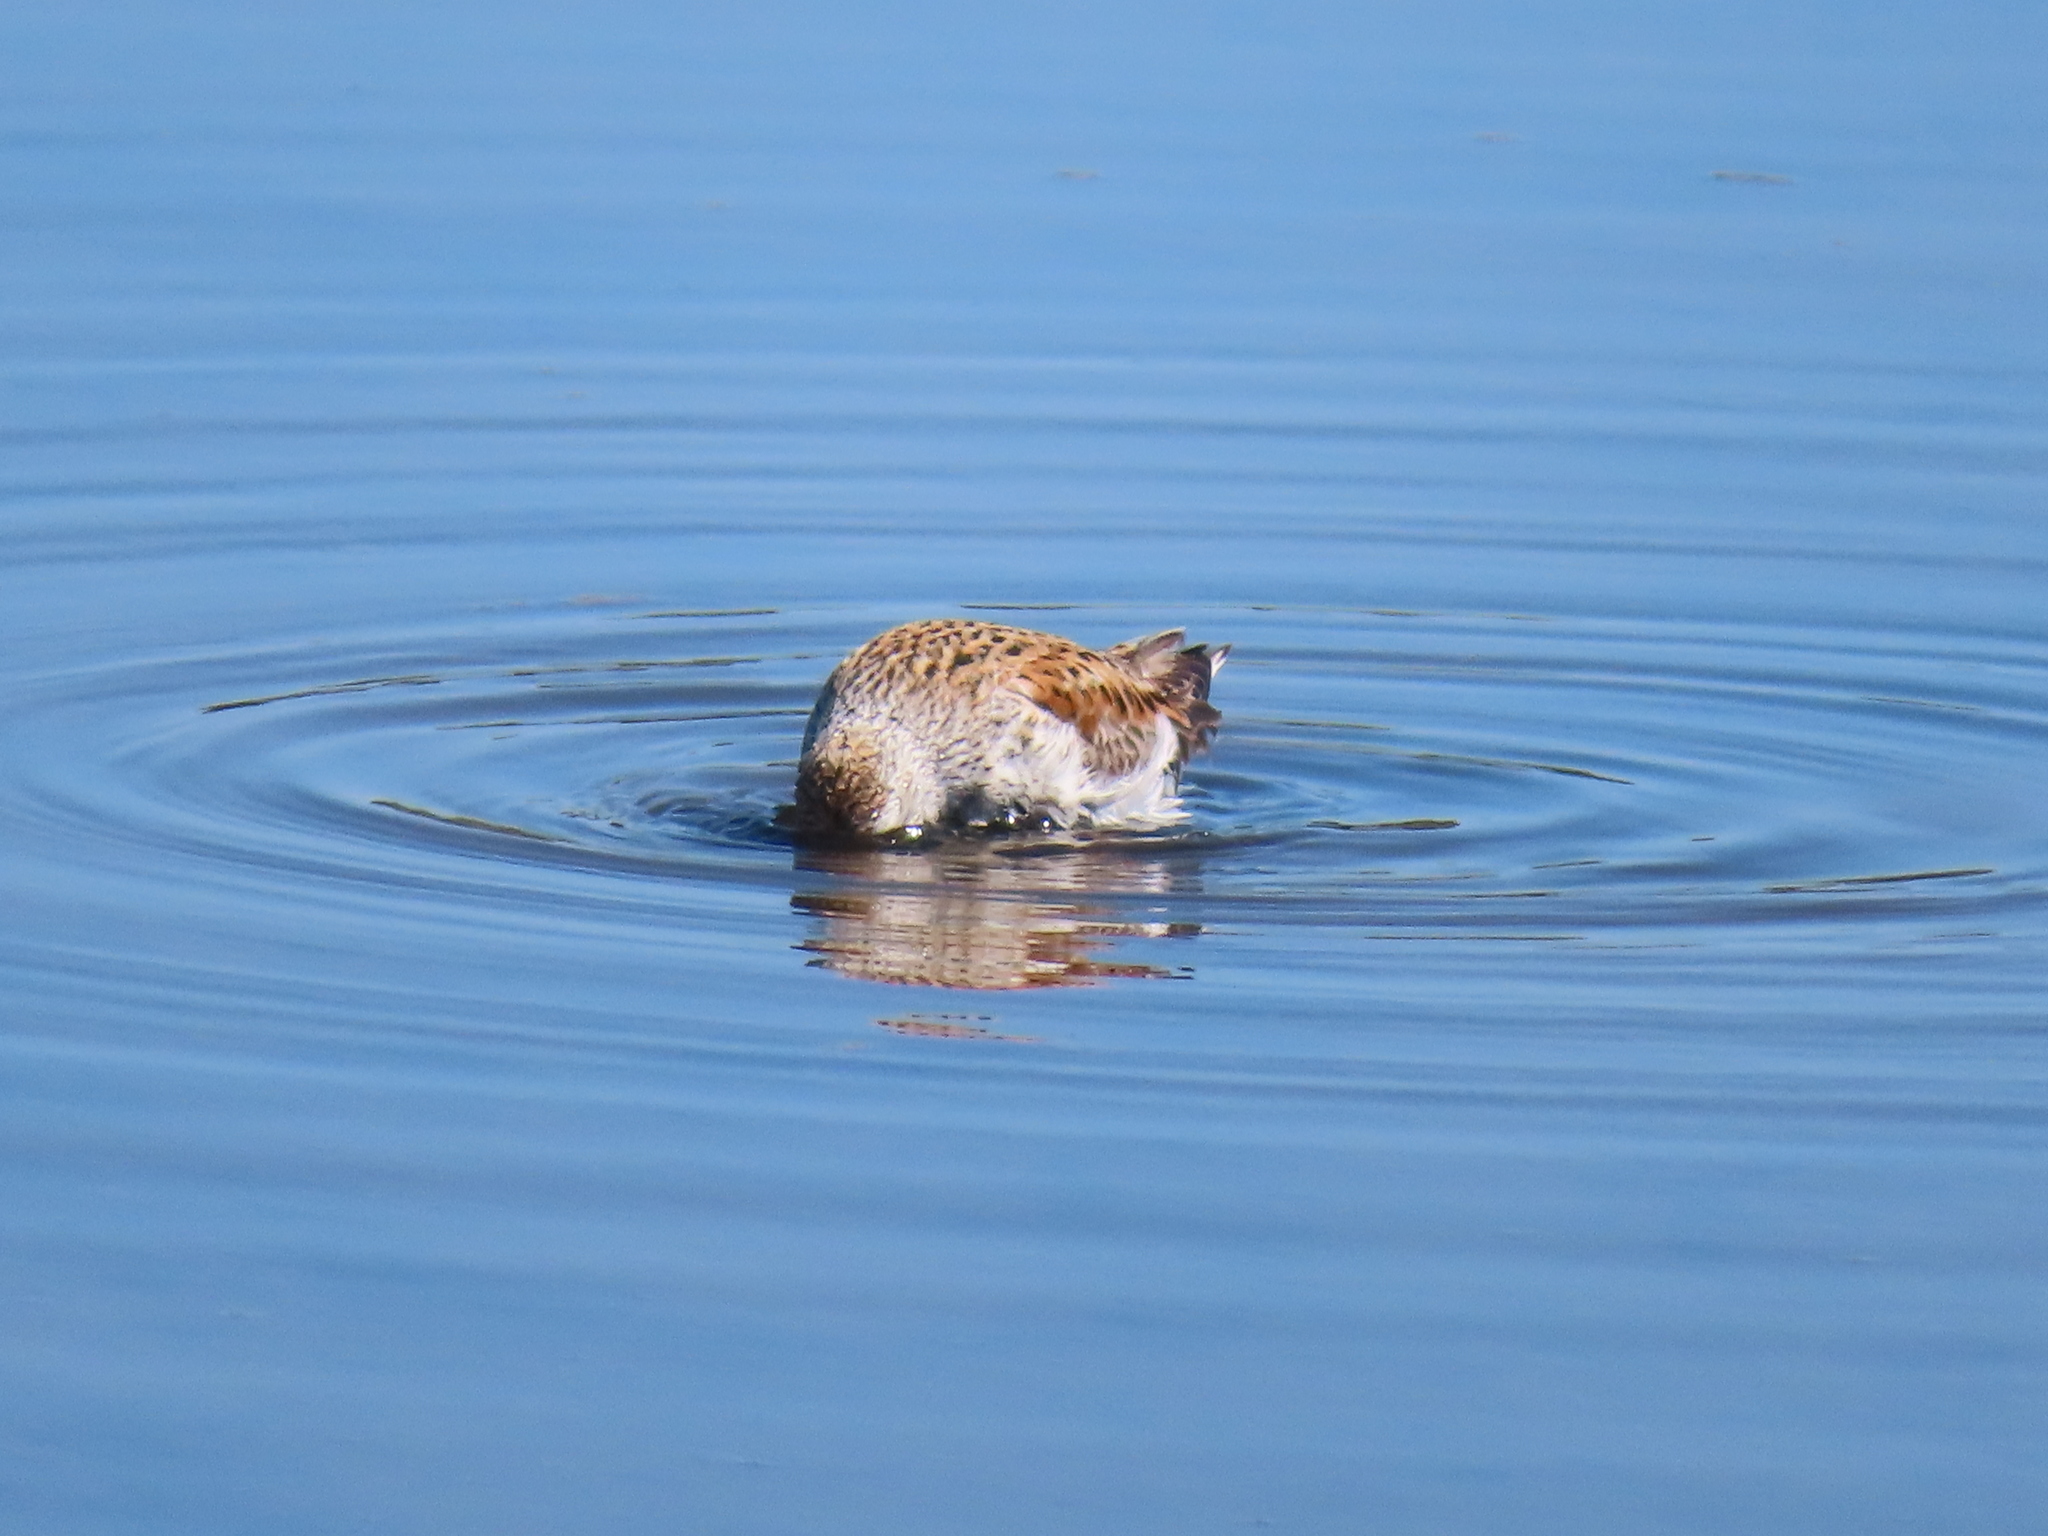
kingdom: Animalia
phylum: Chordata
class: Aves
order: Charadriiformes
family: Scolopacidae
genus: Calidris
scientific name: Calidris alpina
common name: Dunlin
